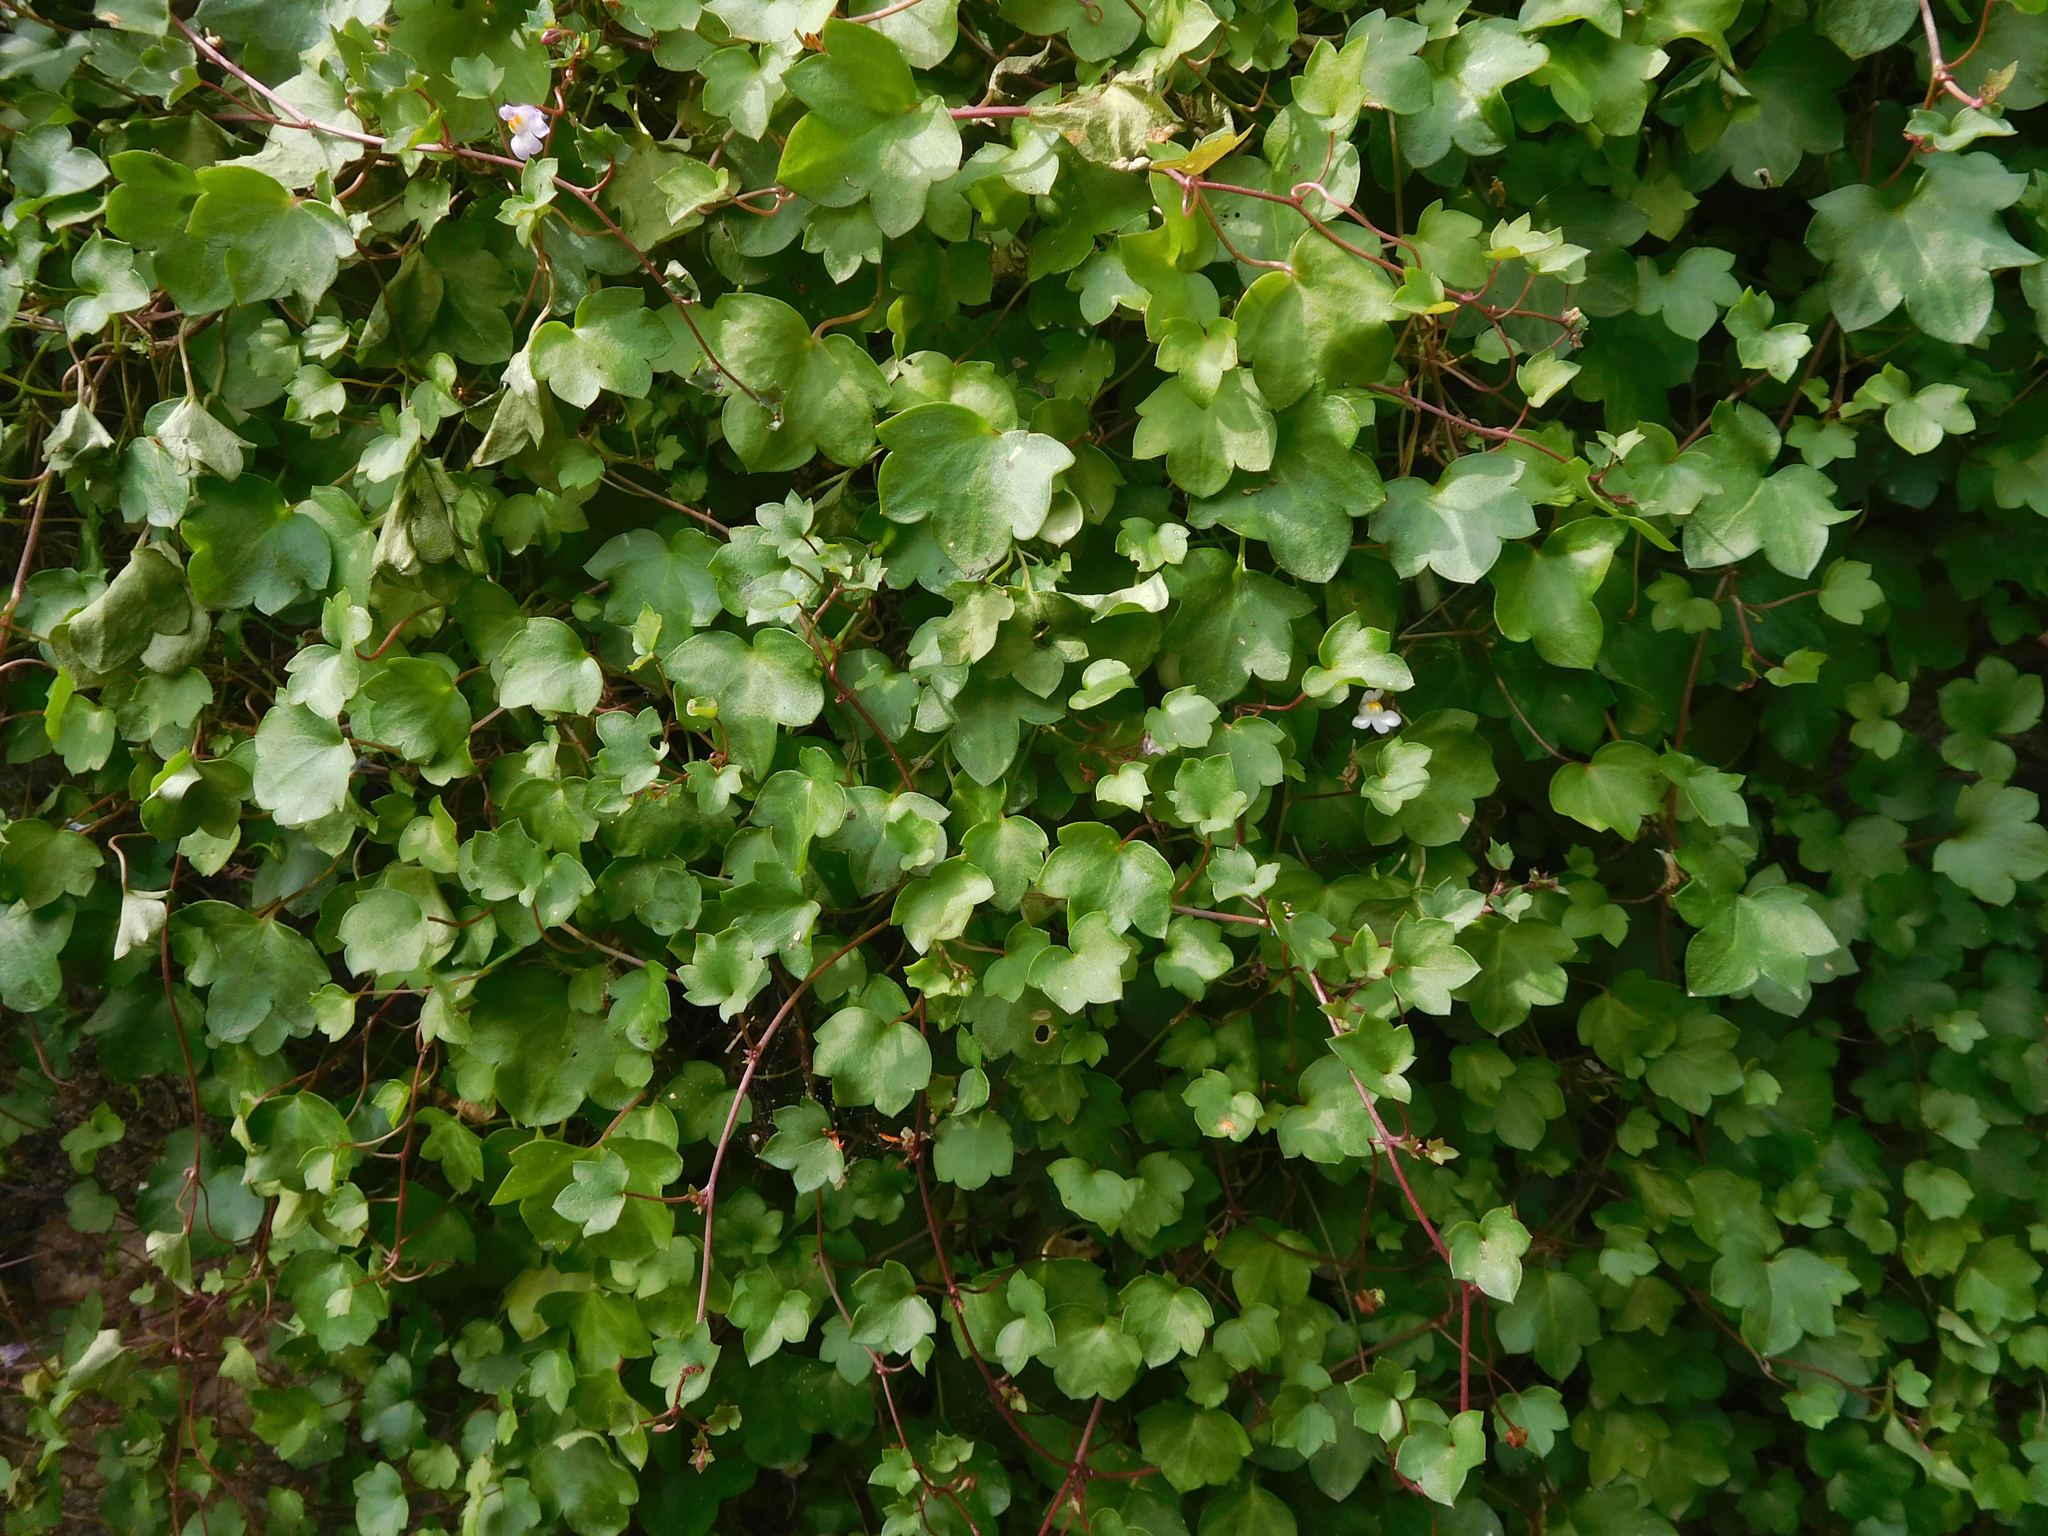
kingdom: Plantae
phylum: Tracheophyta
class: Magnoliopsida
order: Lamiales
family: Plantaginaceae
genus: Cymbalaria
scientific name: Cymbalaria muralis
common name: Ivy-leaved toadflax
